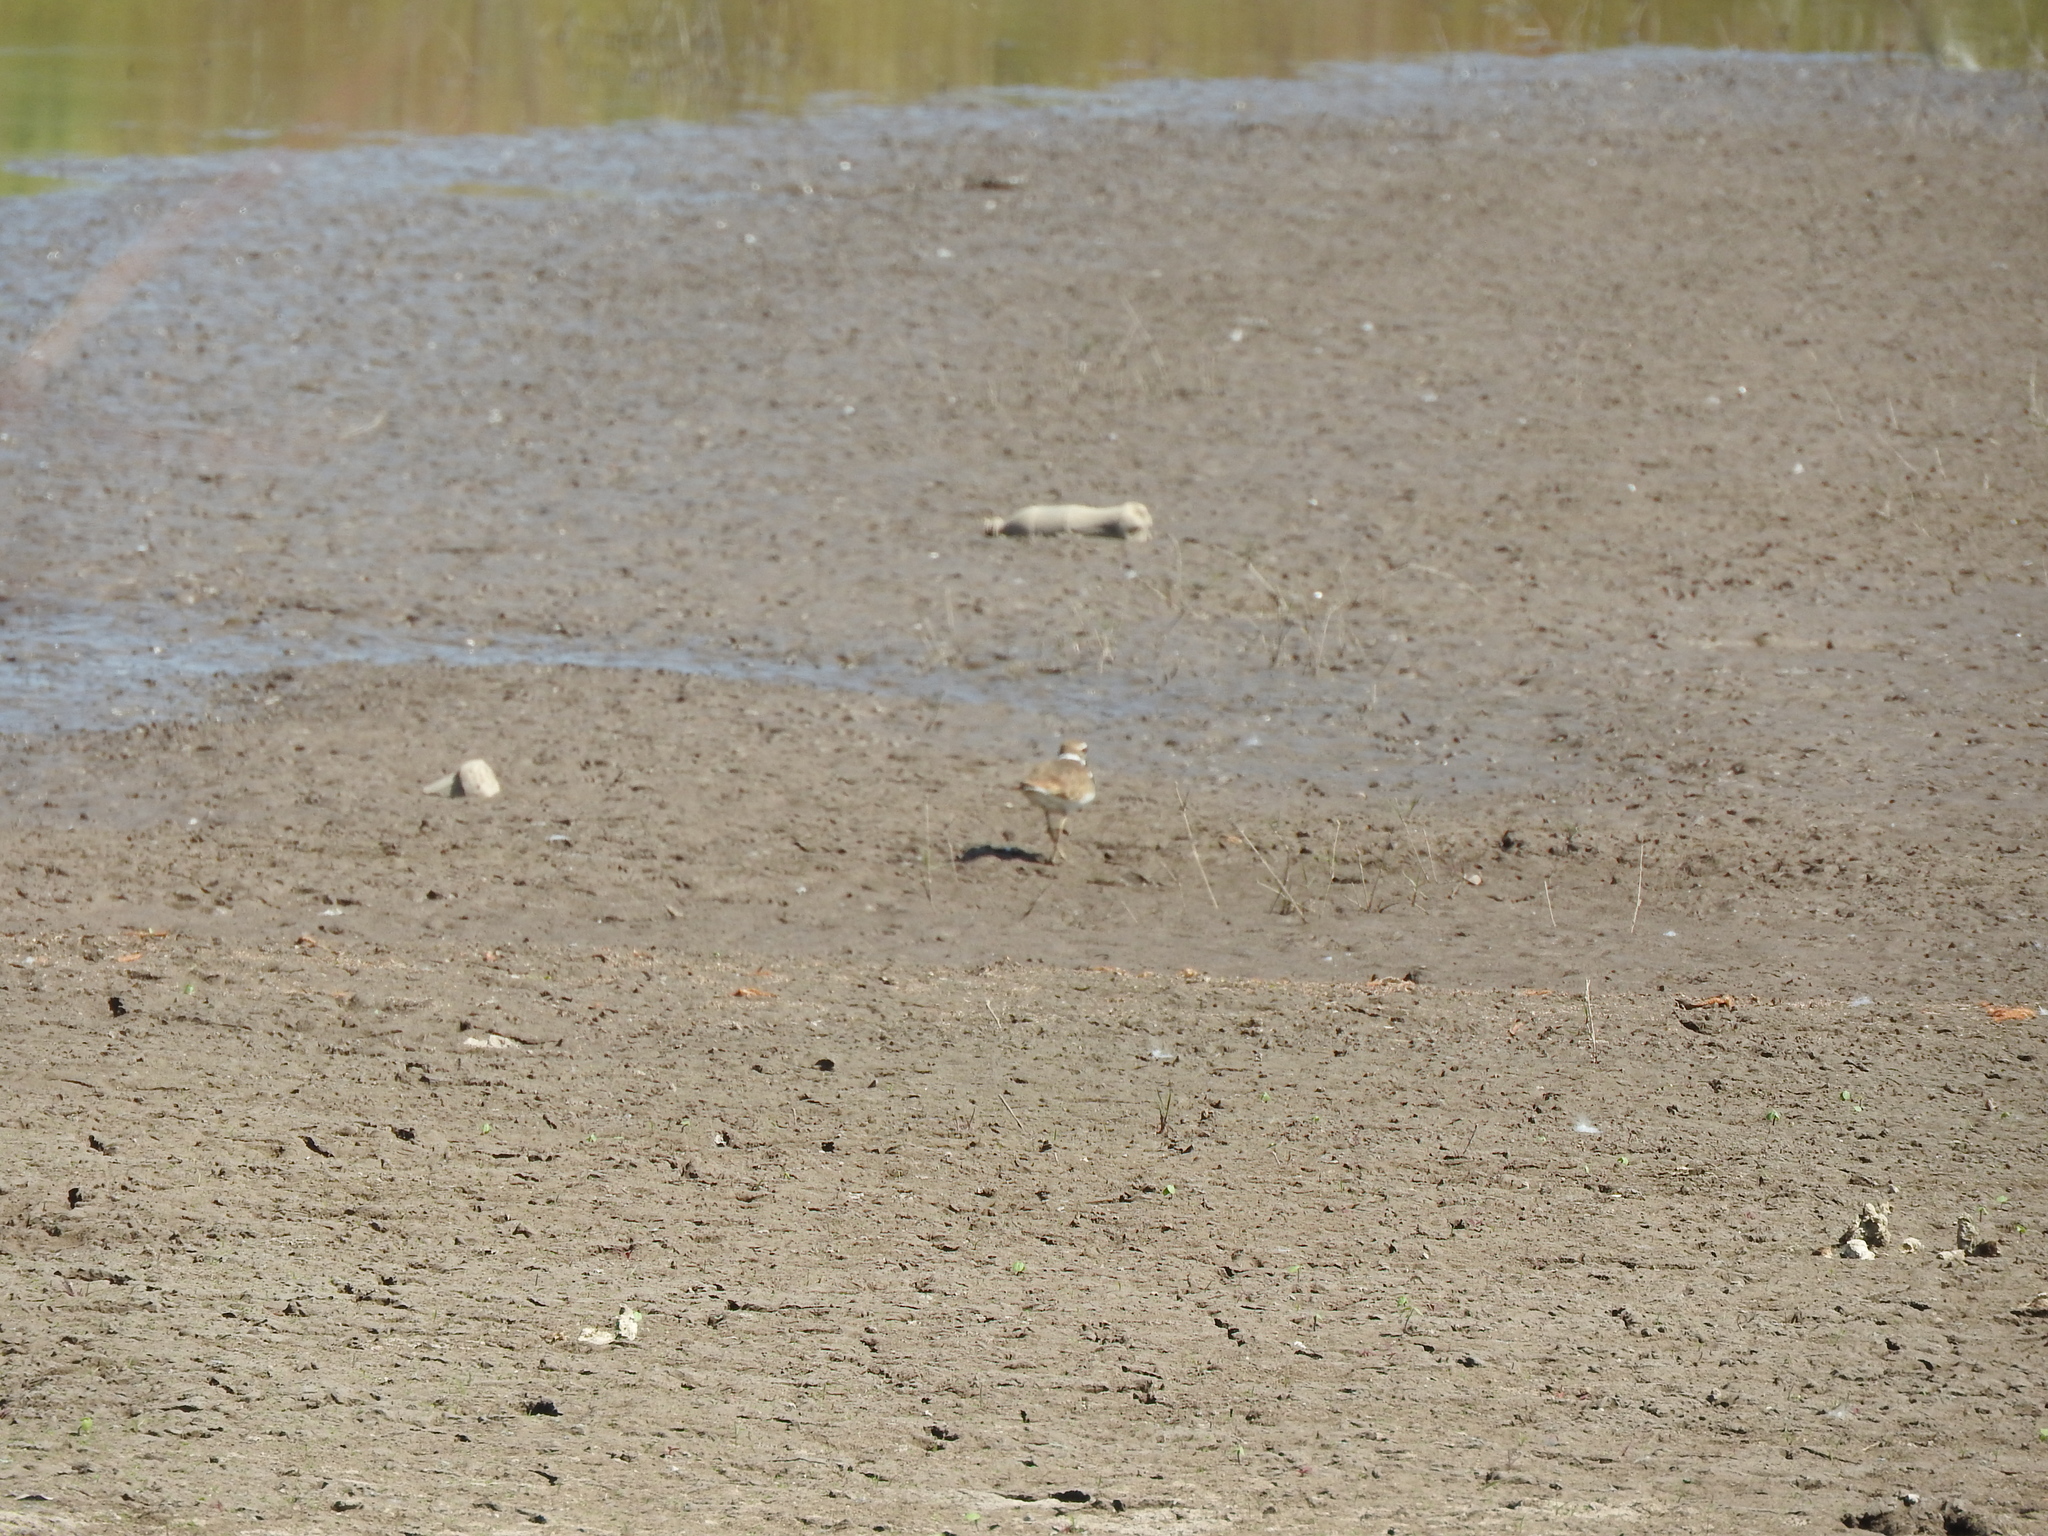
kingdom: Animalia
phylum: Chordata
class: Aves
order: Charadriiformes
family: Charadriidae
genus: Charadrius
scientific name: Charadrius vociferus
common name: Killdeer
